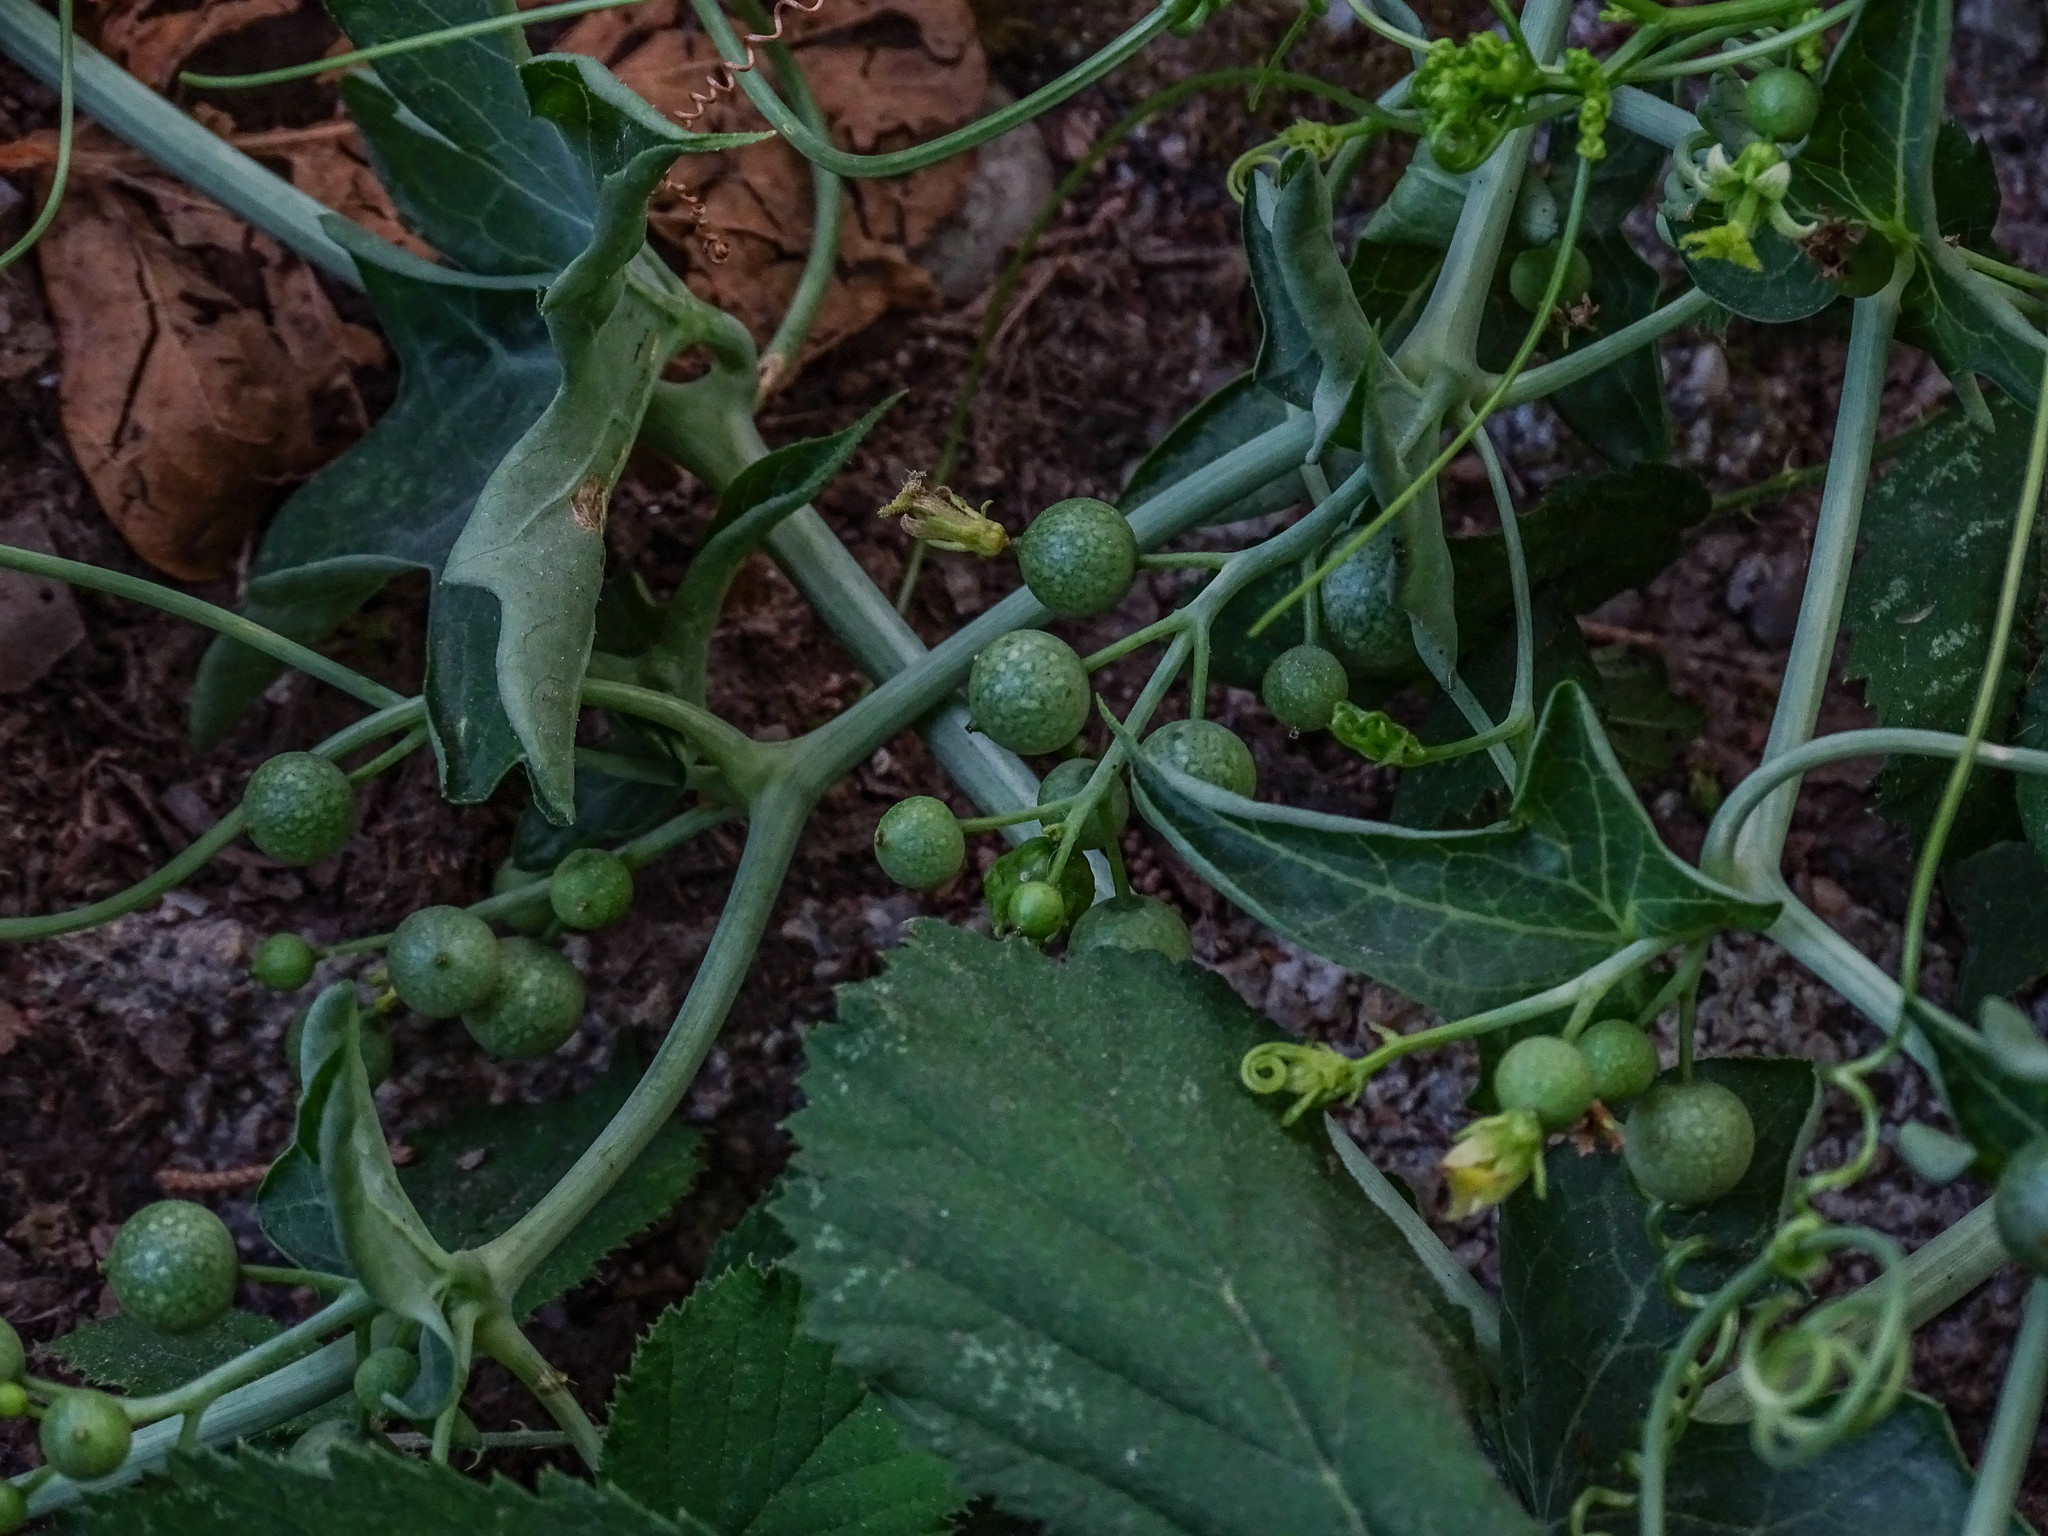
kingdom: Plantae
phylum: Tracheophyta
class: Magnoliopsida
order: Cucurbitales
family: Cucurbitaceae
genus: Bryonia
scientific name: Bryonia cretica
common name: Cretan bryony
